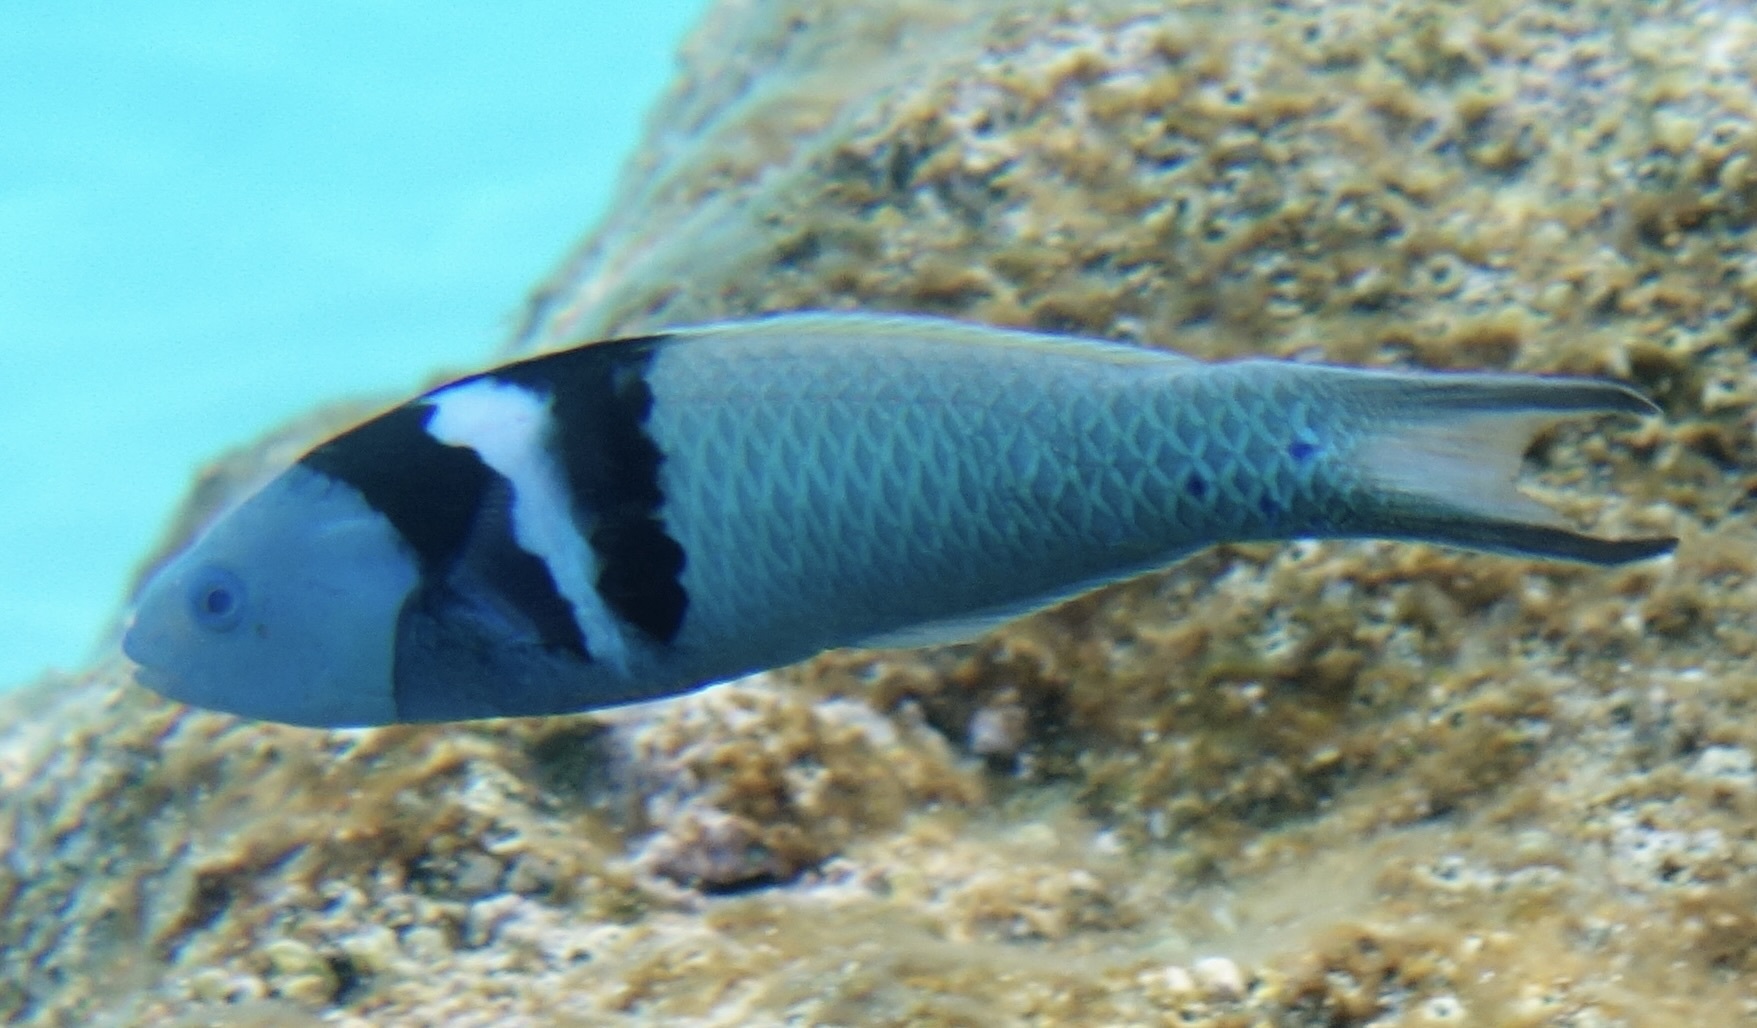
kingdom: Animalia
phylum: Chordata
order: Perciformes
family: Labridae
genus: Thalassoma
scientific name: Thalassoma bifasciatum
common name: Bluehead wrasse
